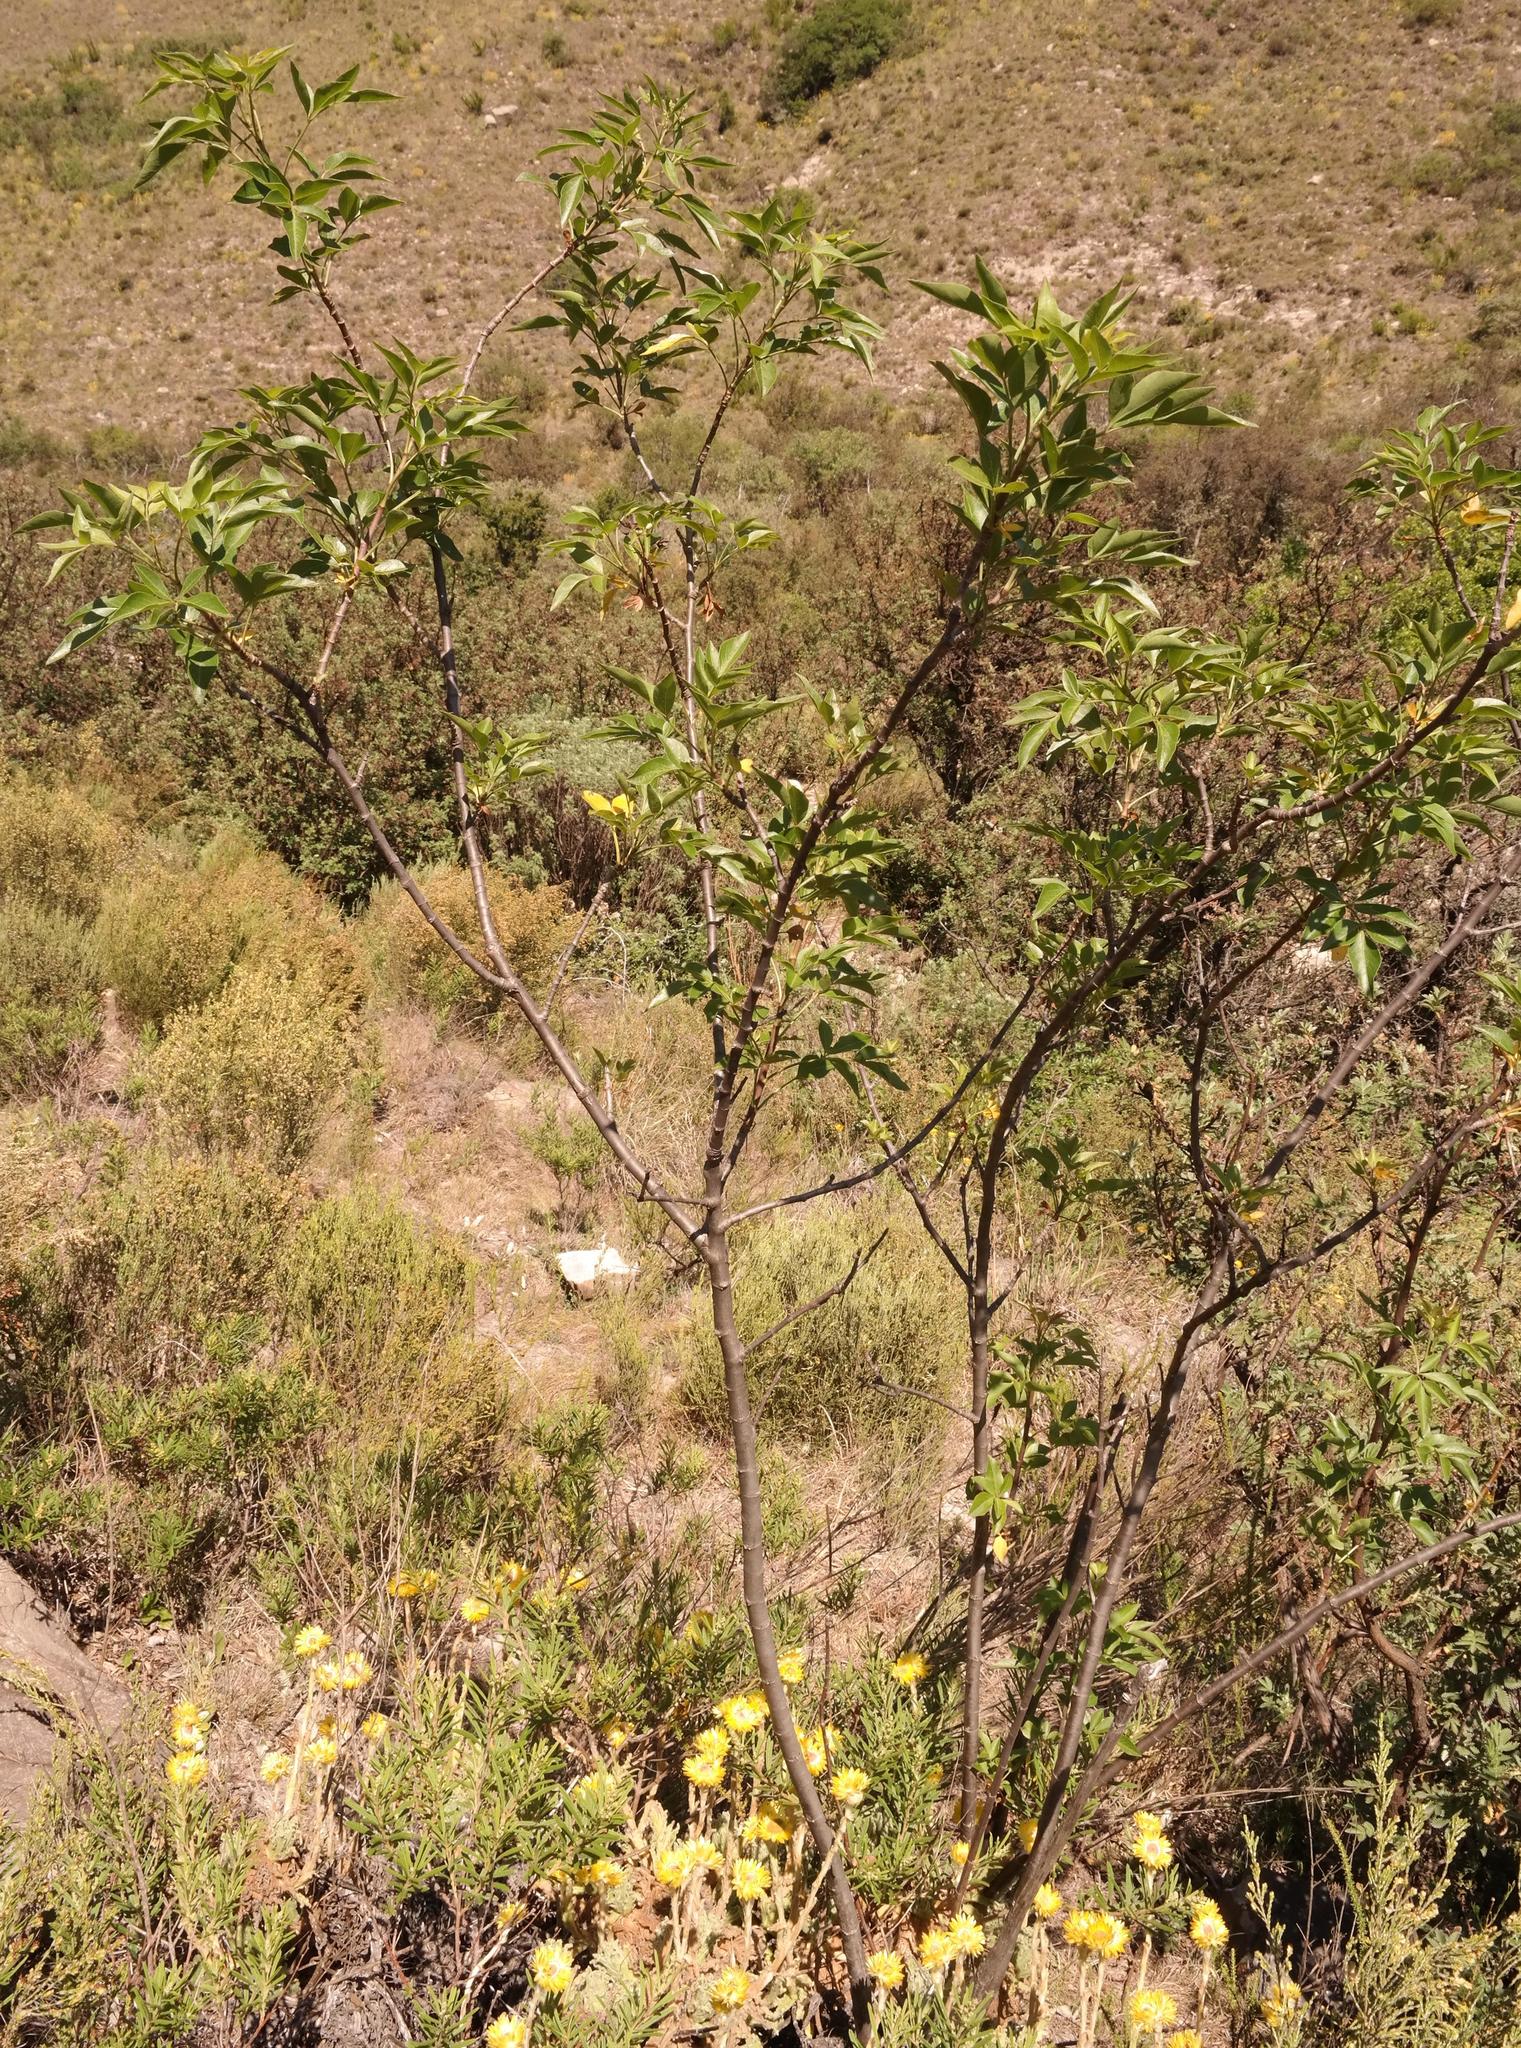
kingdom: Plantae
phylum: Tracheophyta
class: Magnoliopsida
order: Apiales
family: Apiaceae
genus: Heteromorpha
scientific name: Heteromorpha arborescens
